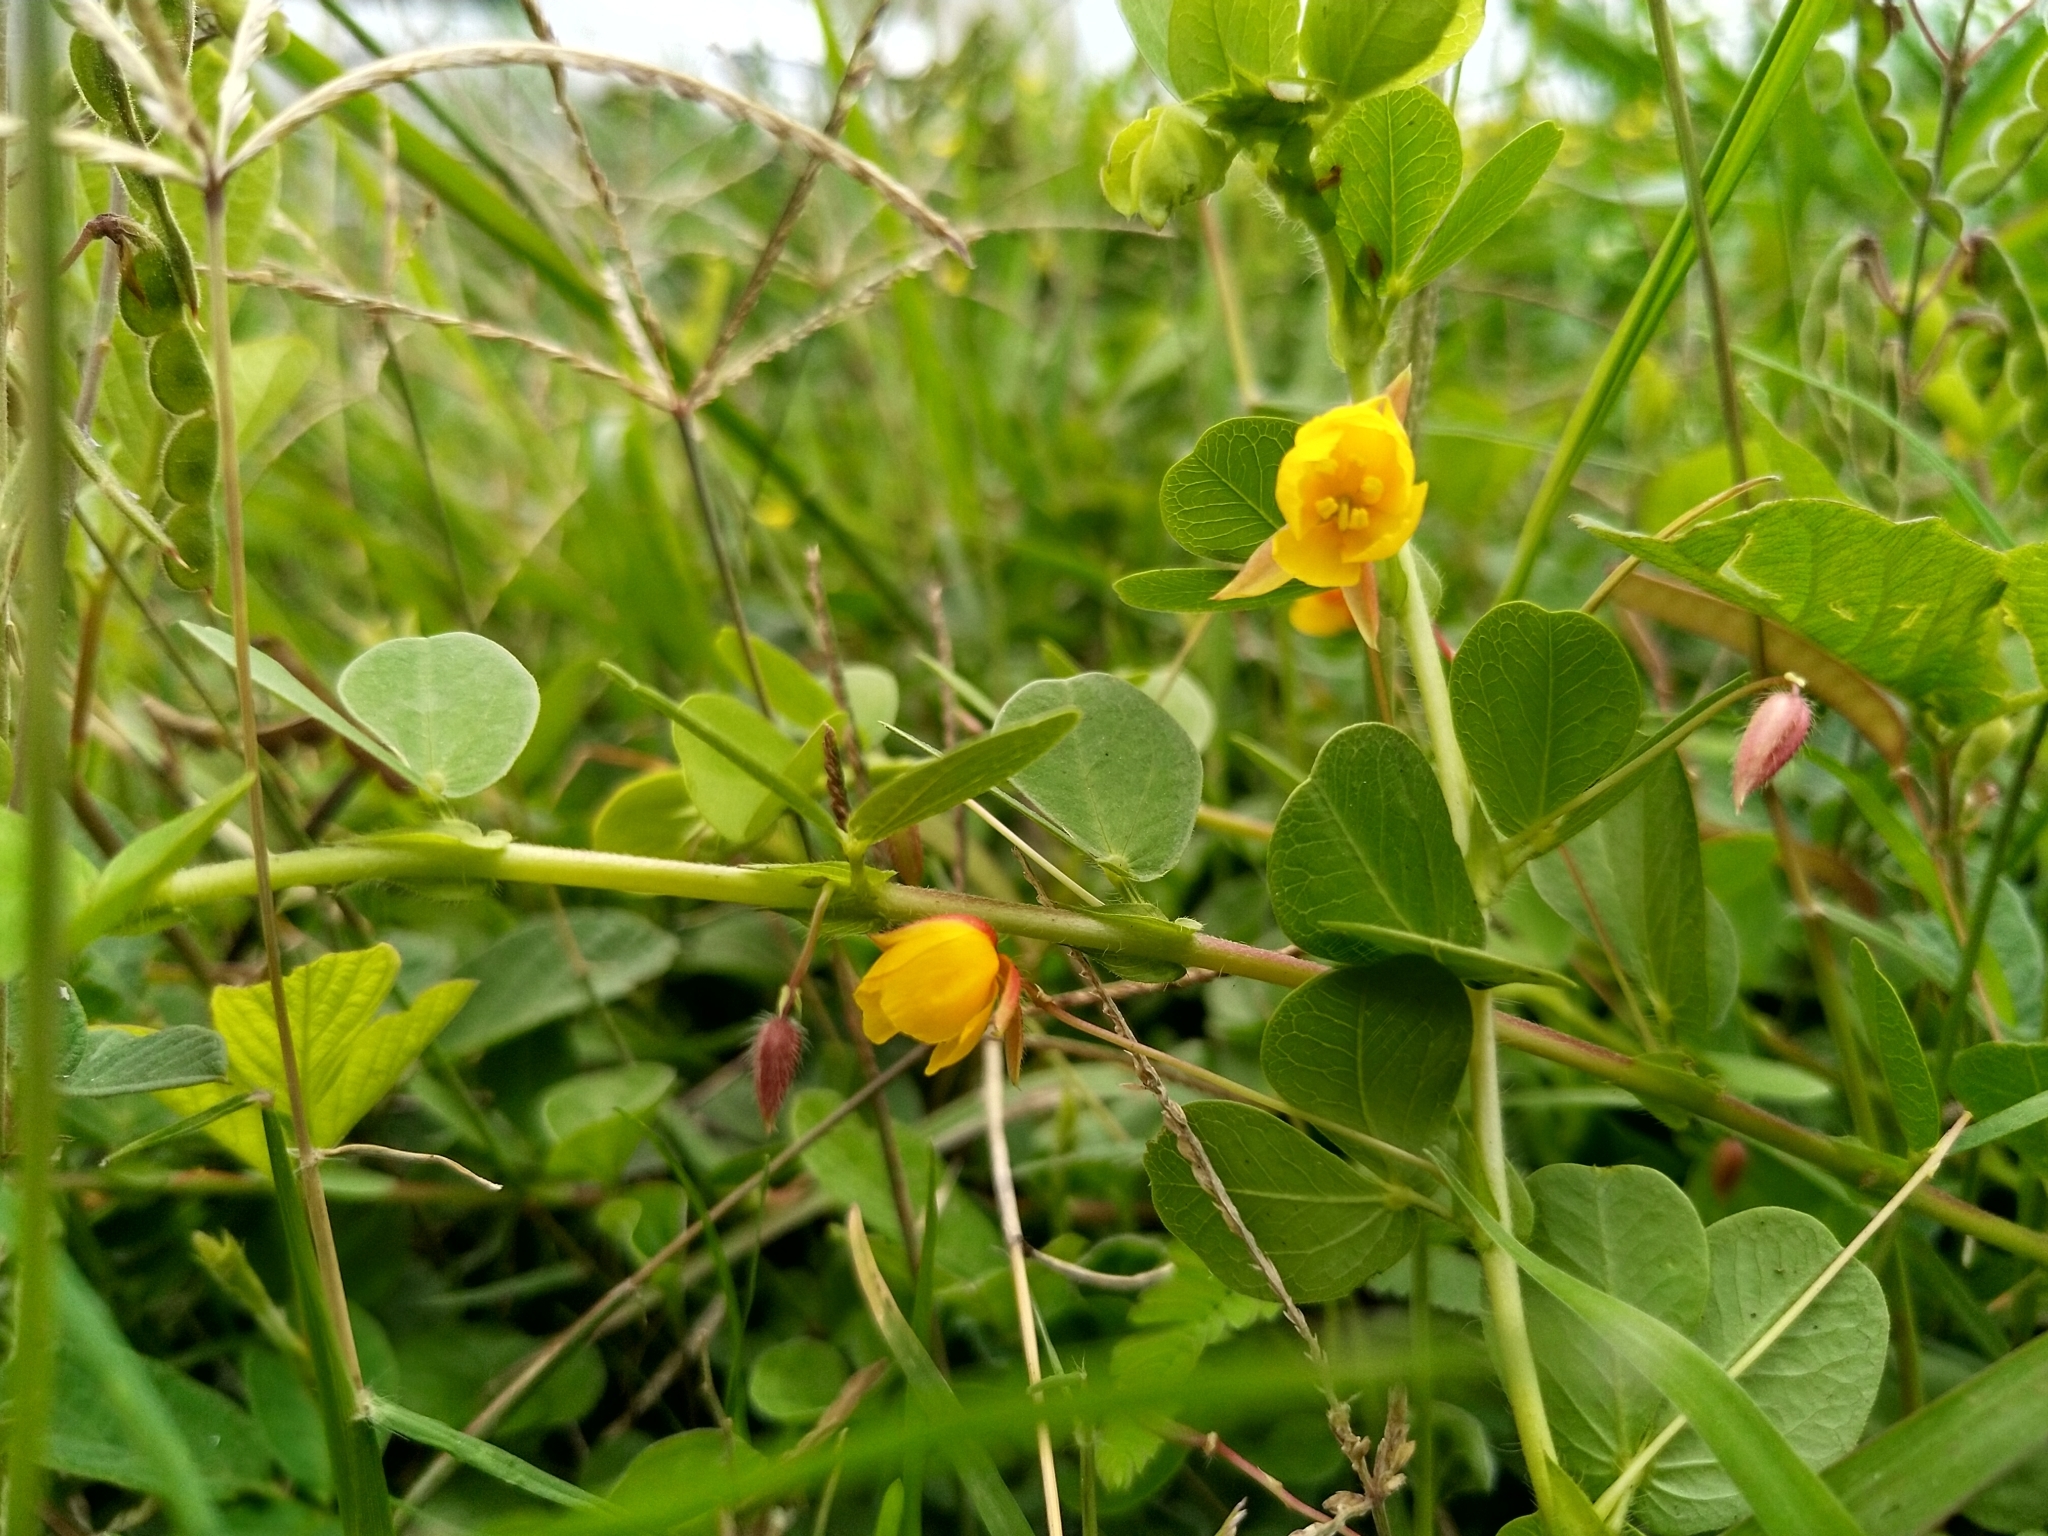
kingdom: Plantae
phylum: Tracheophyta
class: Magnoliopsida
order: Fabales
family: Fabaceae
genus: Chamaecrista
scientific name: Chamaecrista rotundifolia
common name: Round-leaf cassia
